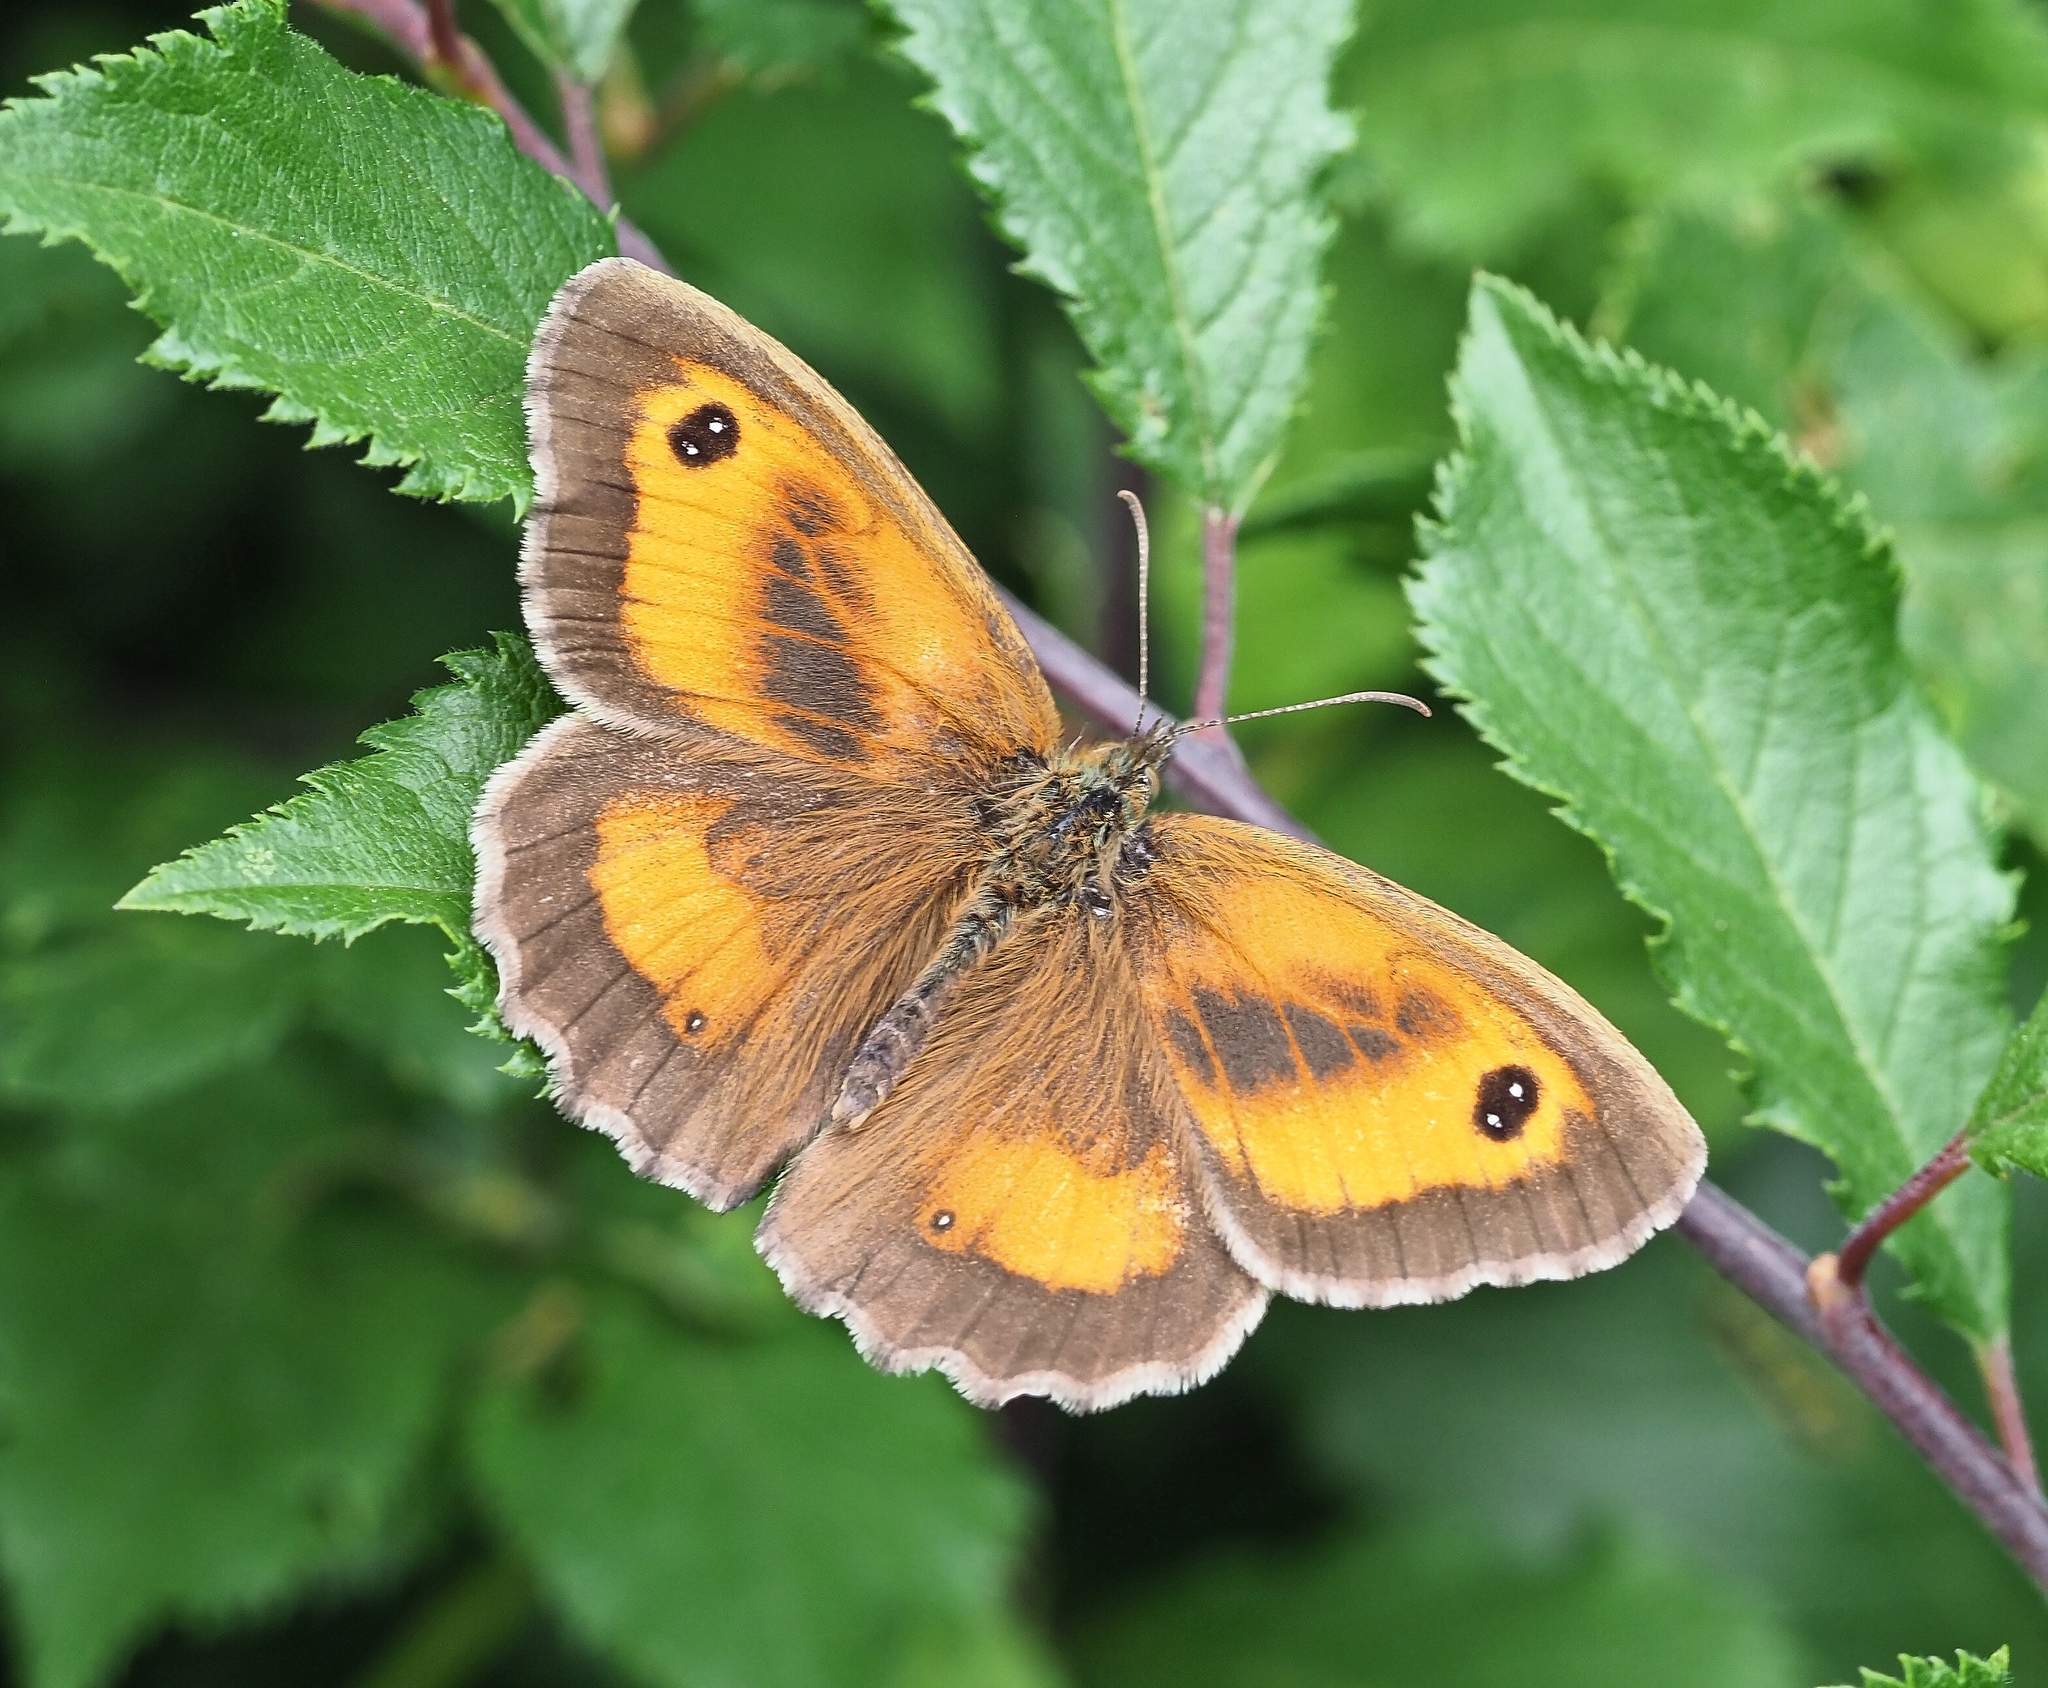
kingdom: Animalia
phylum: Arthropoda
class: Insecta
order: Lepidoptera
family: Nymphalidae
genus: Pyronia
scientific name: Pyronia tithonus
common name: Gatekeeper
